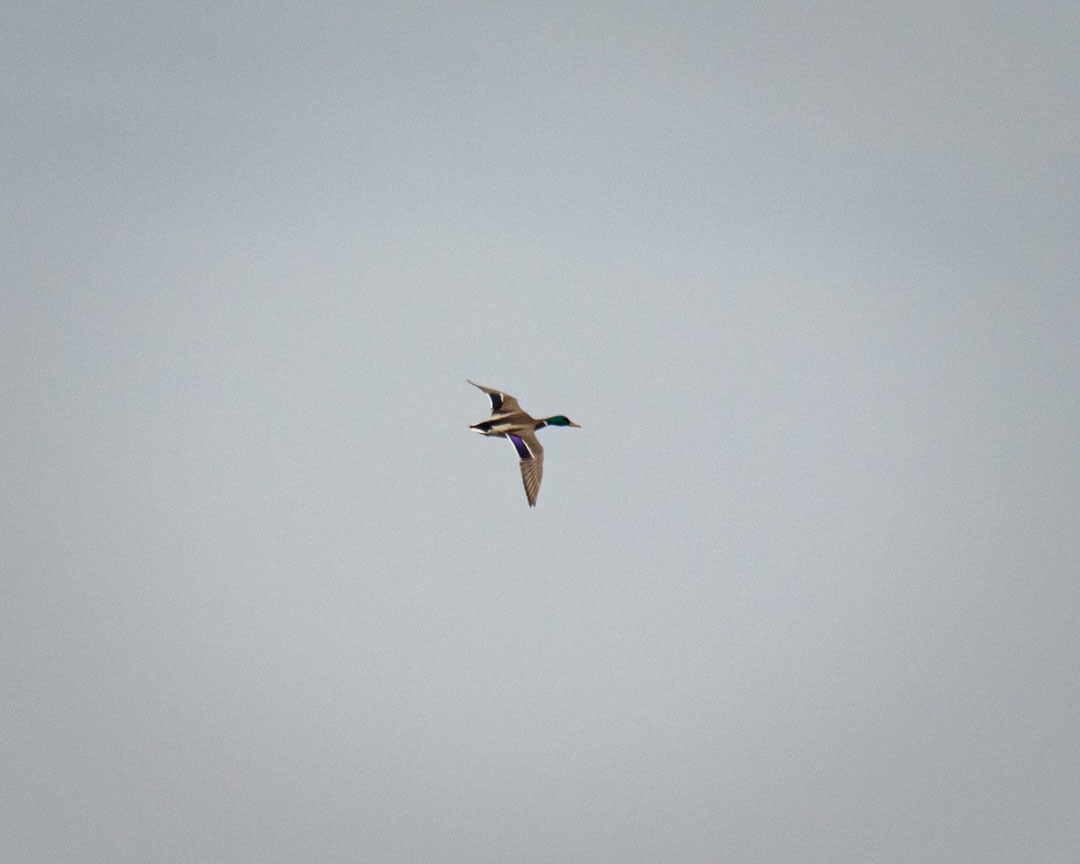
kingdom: Animalia
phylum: Chordata
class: Aves
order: Anseriformes
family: Anatidae
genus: Anas
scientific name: Anas platyrhynchos
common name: Mallard
